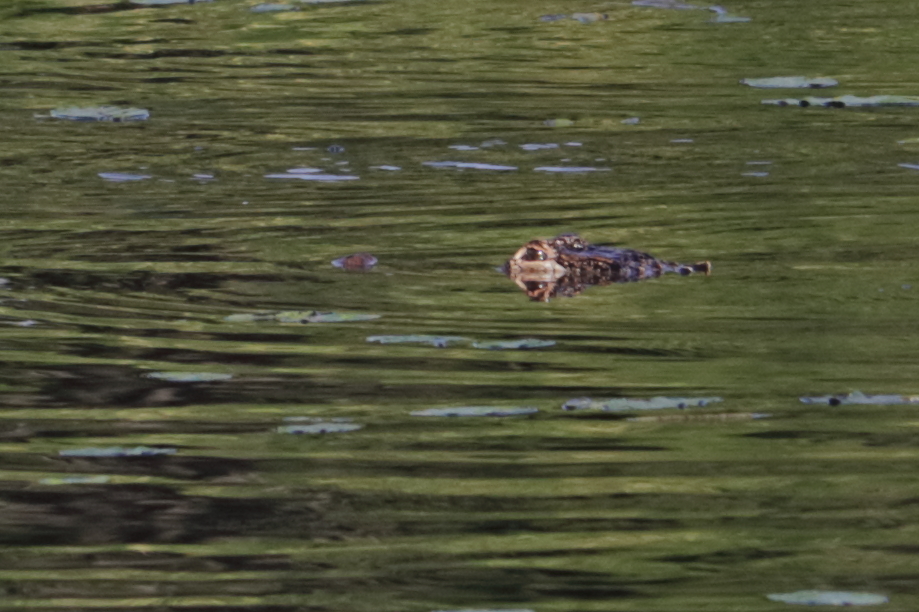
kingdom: Animalia
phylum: Chordata
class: Crocodylia
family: Alligatoridae
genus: Alligator
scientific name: Alligator mississippiensis
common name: American alligator
